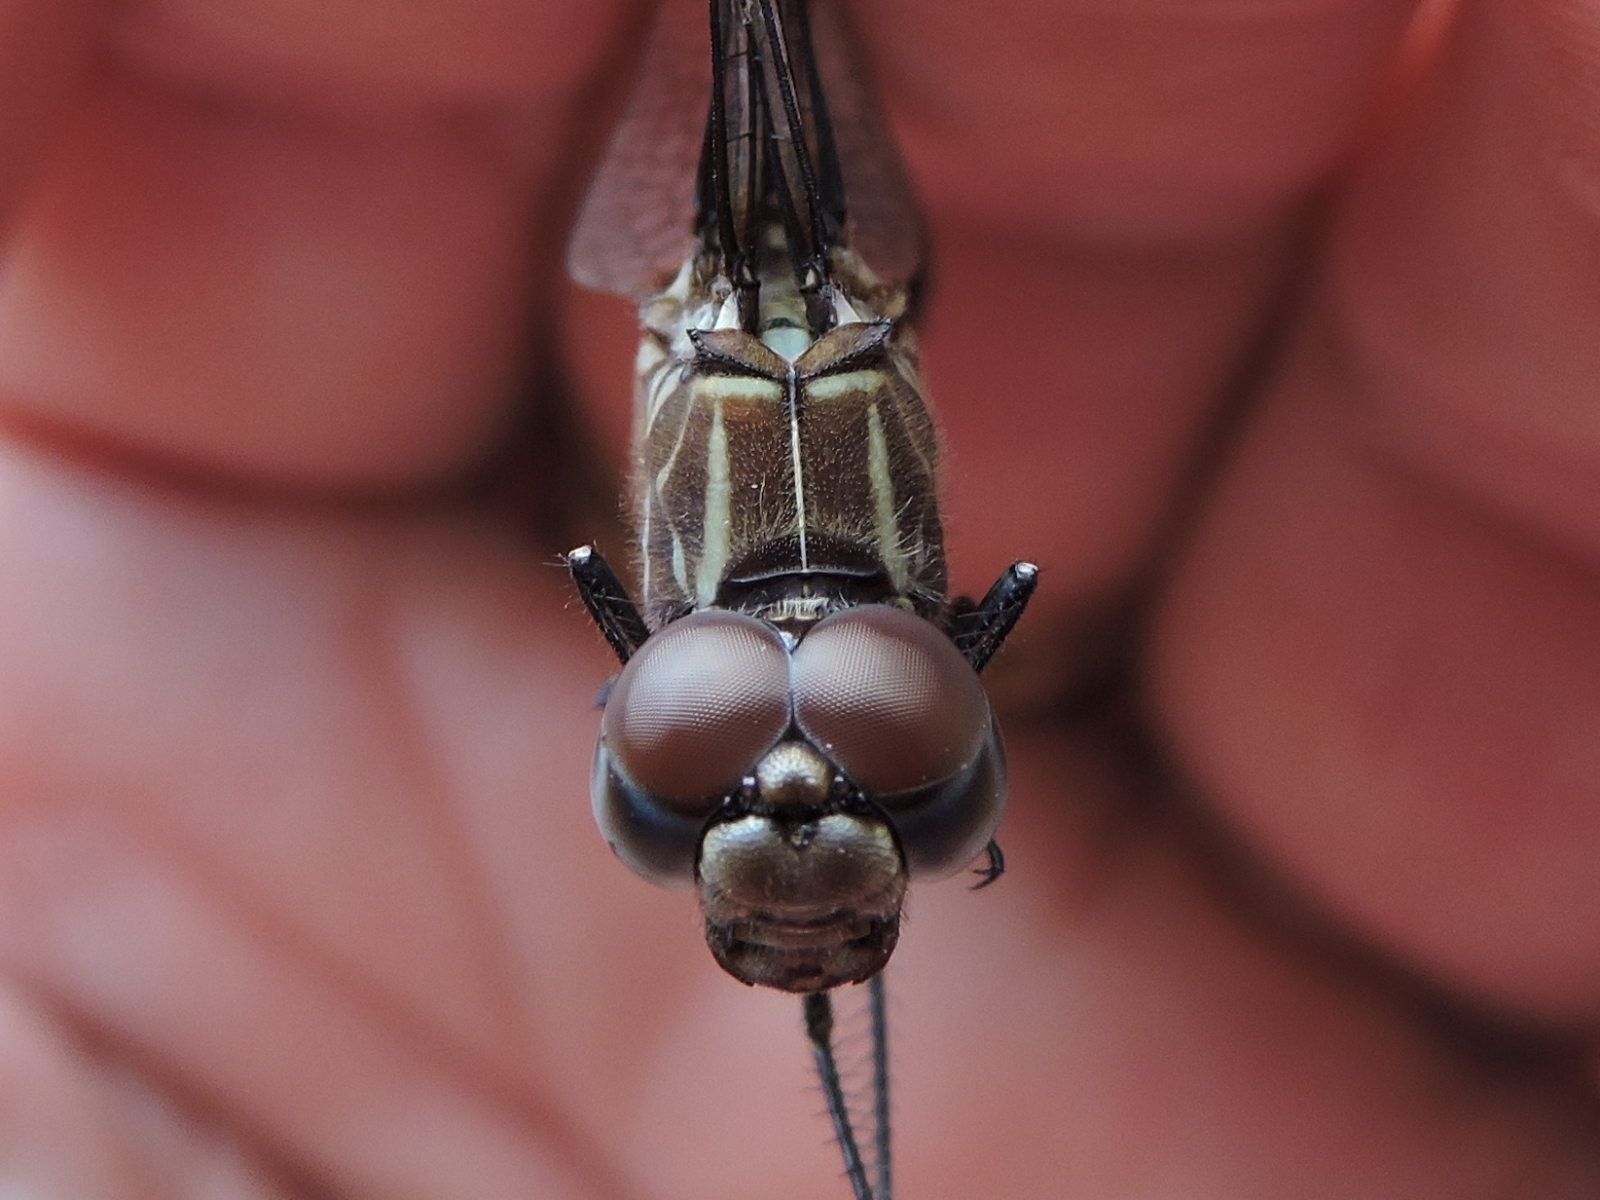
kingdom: Animalia
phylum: Arthropoda
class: Insecta
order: Odonata
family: Libellulidae
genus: Dythemis
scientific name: Dythemis velox
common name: Swift setwing
